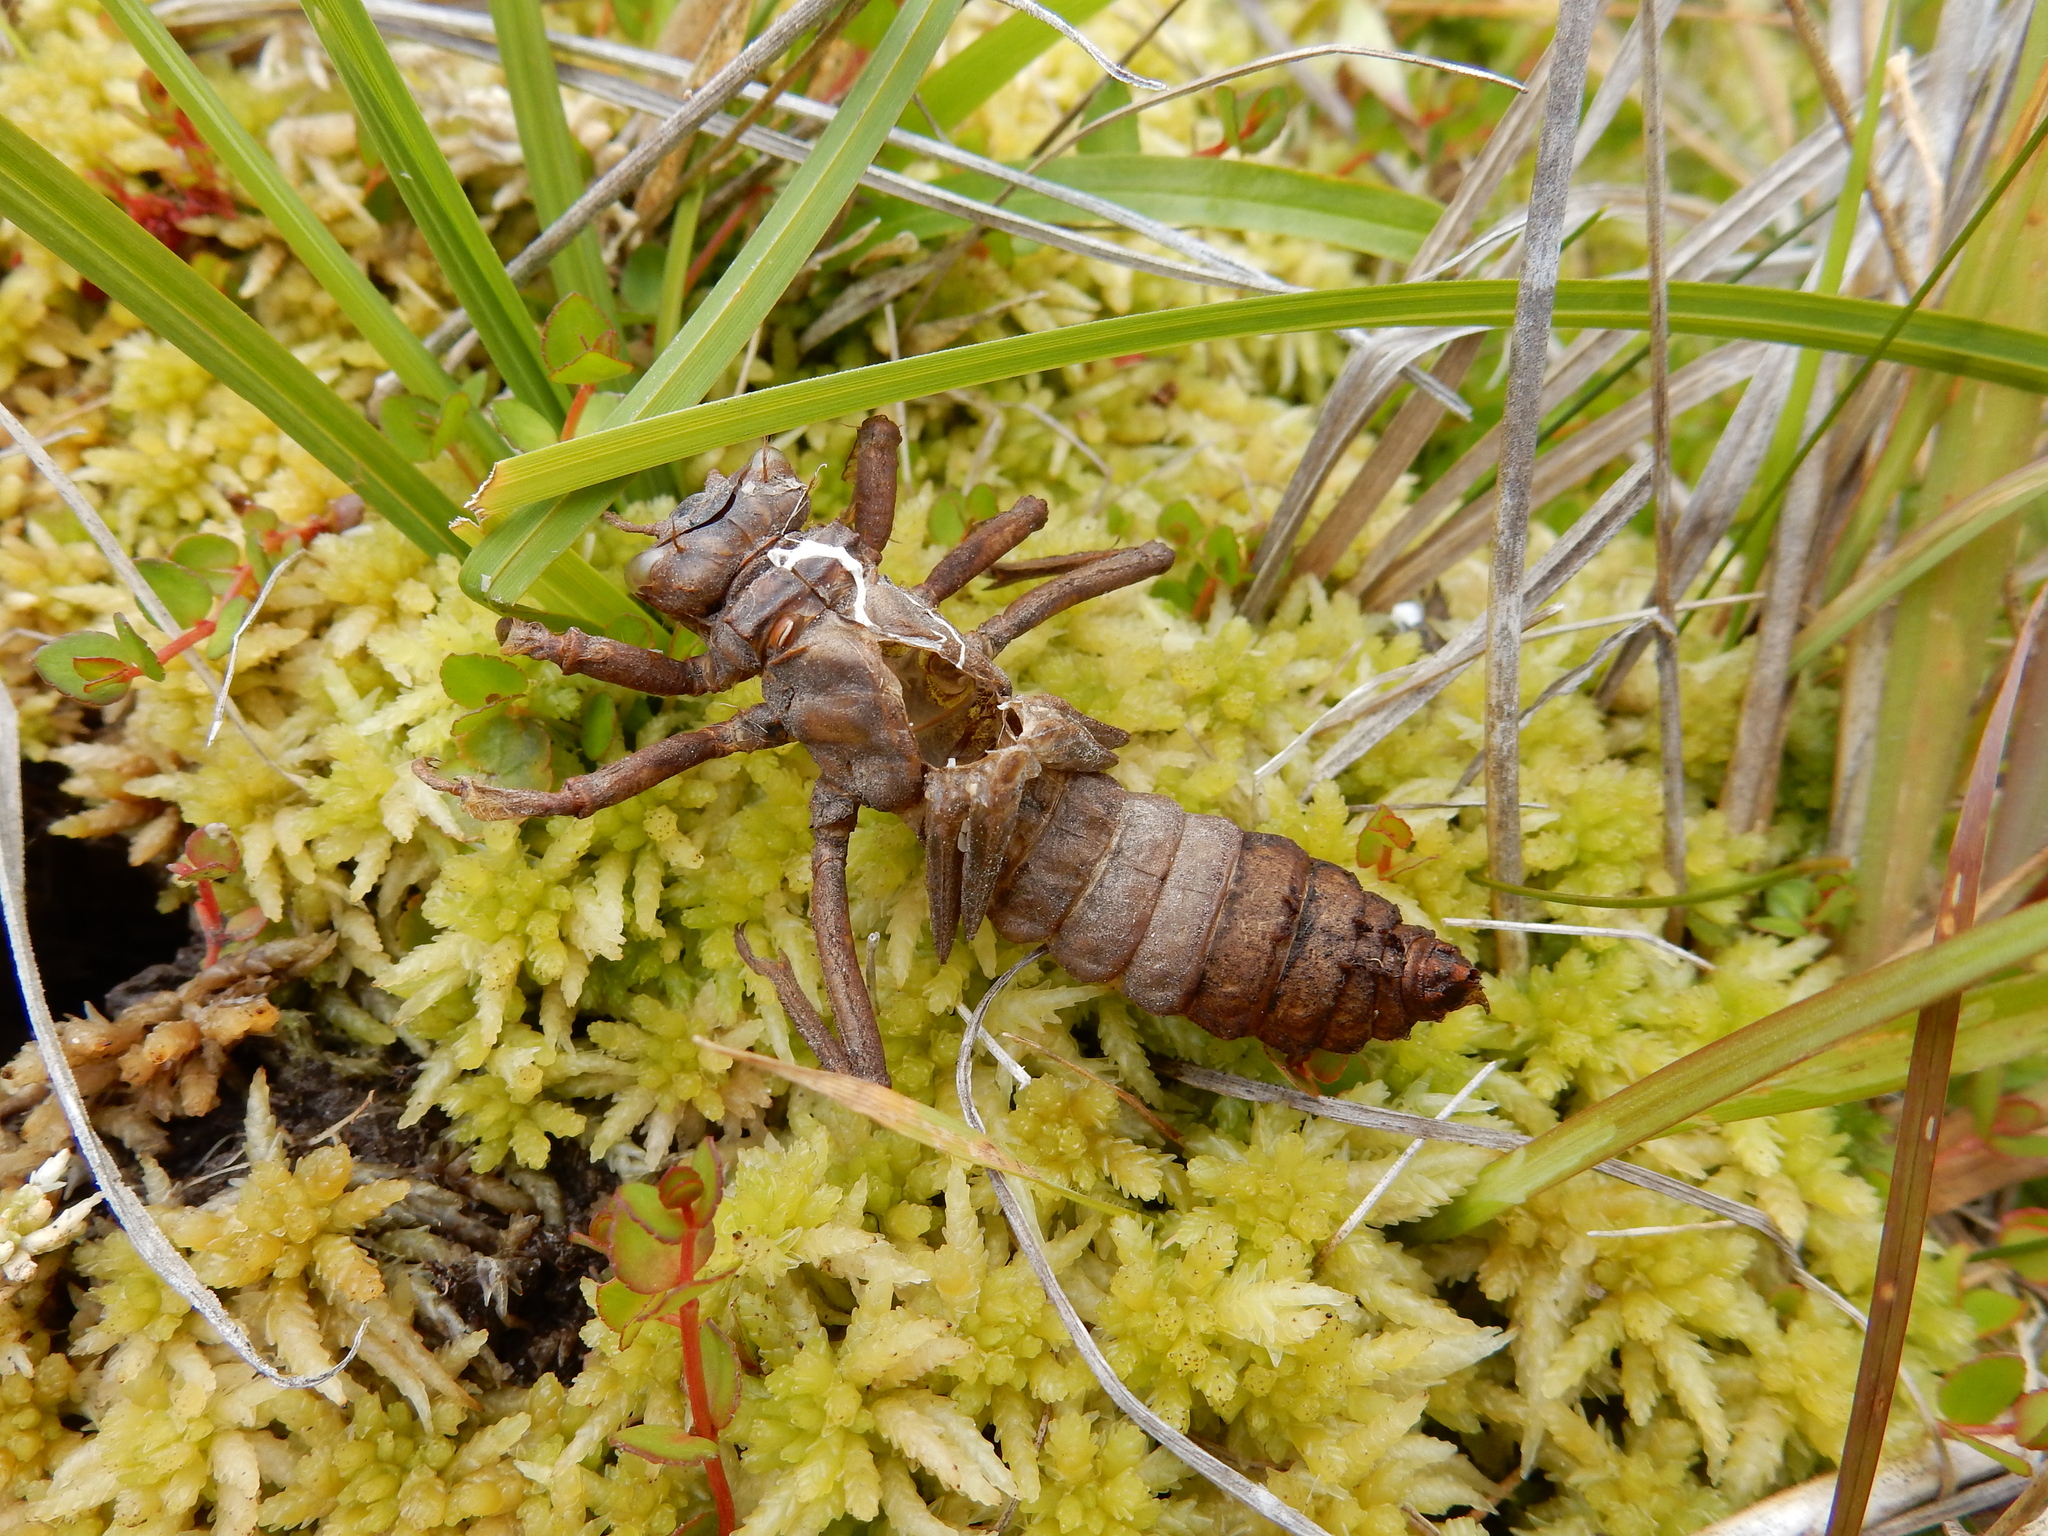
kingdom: Animalia
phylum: Arthropoda
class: Insecta
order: Odonata
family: Petaluridae
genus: Uropetala
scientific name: Uropetala chiltoni
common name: Mountain giant dragonfly
